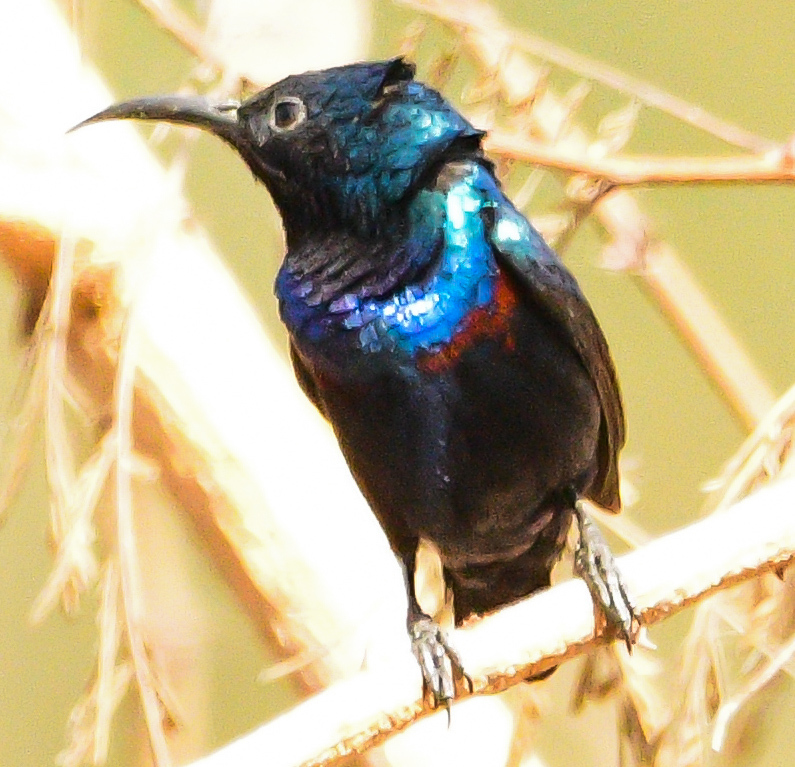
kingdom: Animalia
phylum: Chordata
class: Aves
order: Passeriformes
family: Nectariniidae
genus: Cinnyris
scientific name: Cinnyris asiaticus
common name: Purple sunbird
